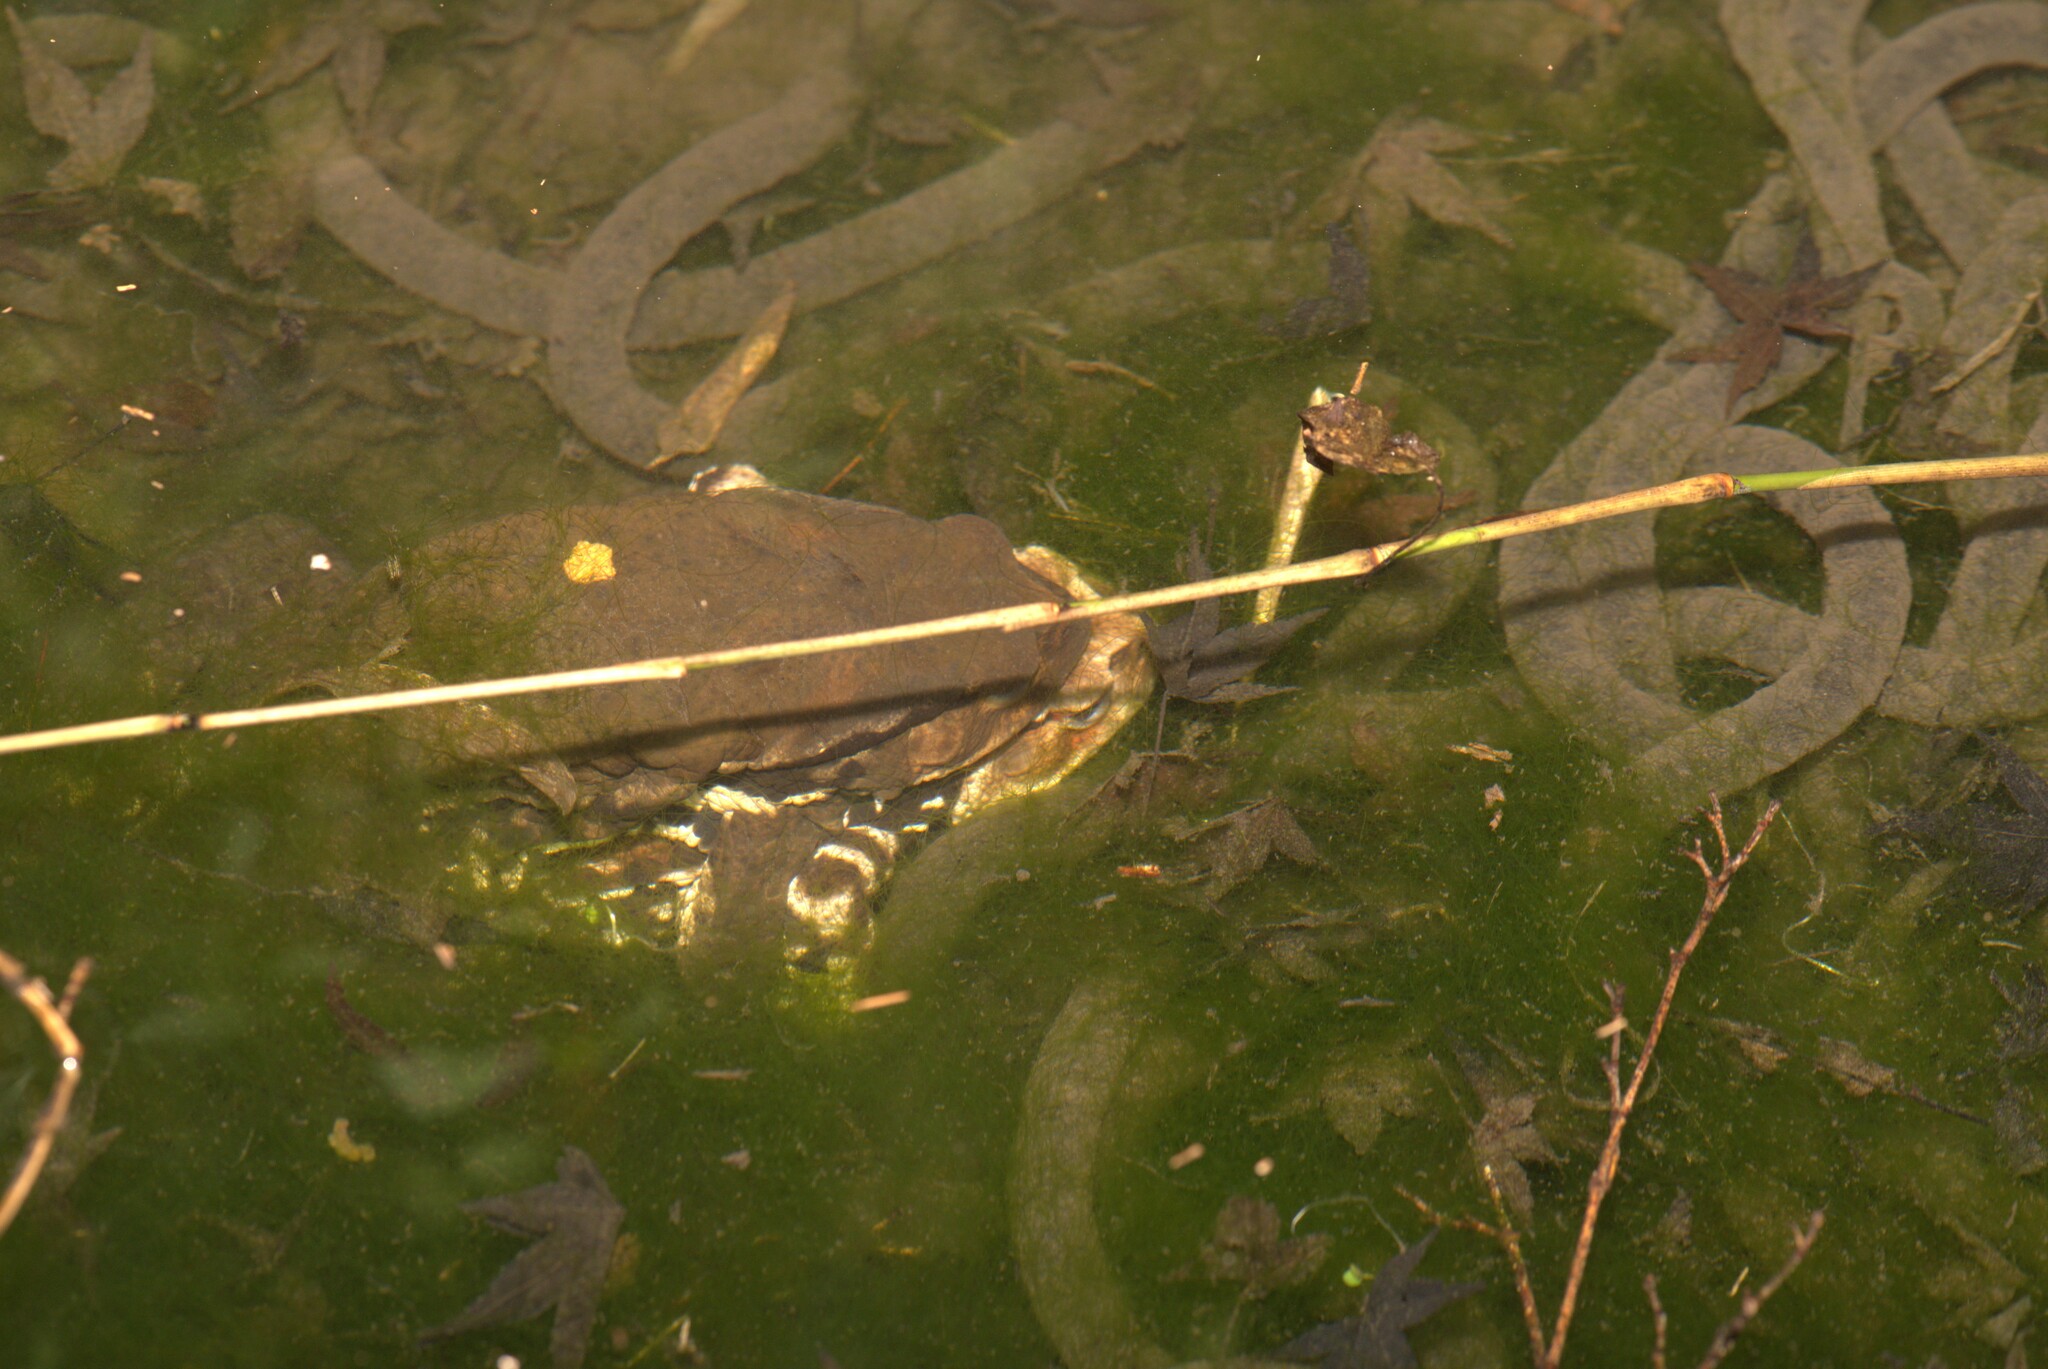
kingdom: Animalia
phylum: Chordata
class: Amphibia
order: Anura
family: Bufonidae
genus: Bufo
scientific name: Bufo japonicus
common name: Japanese common toad
